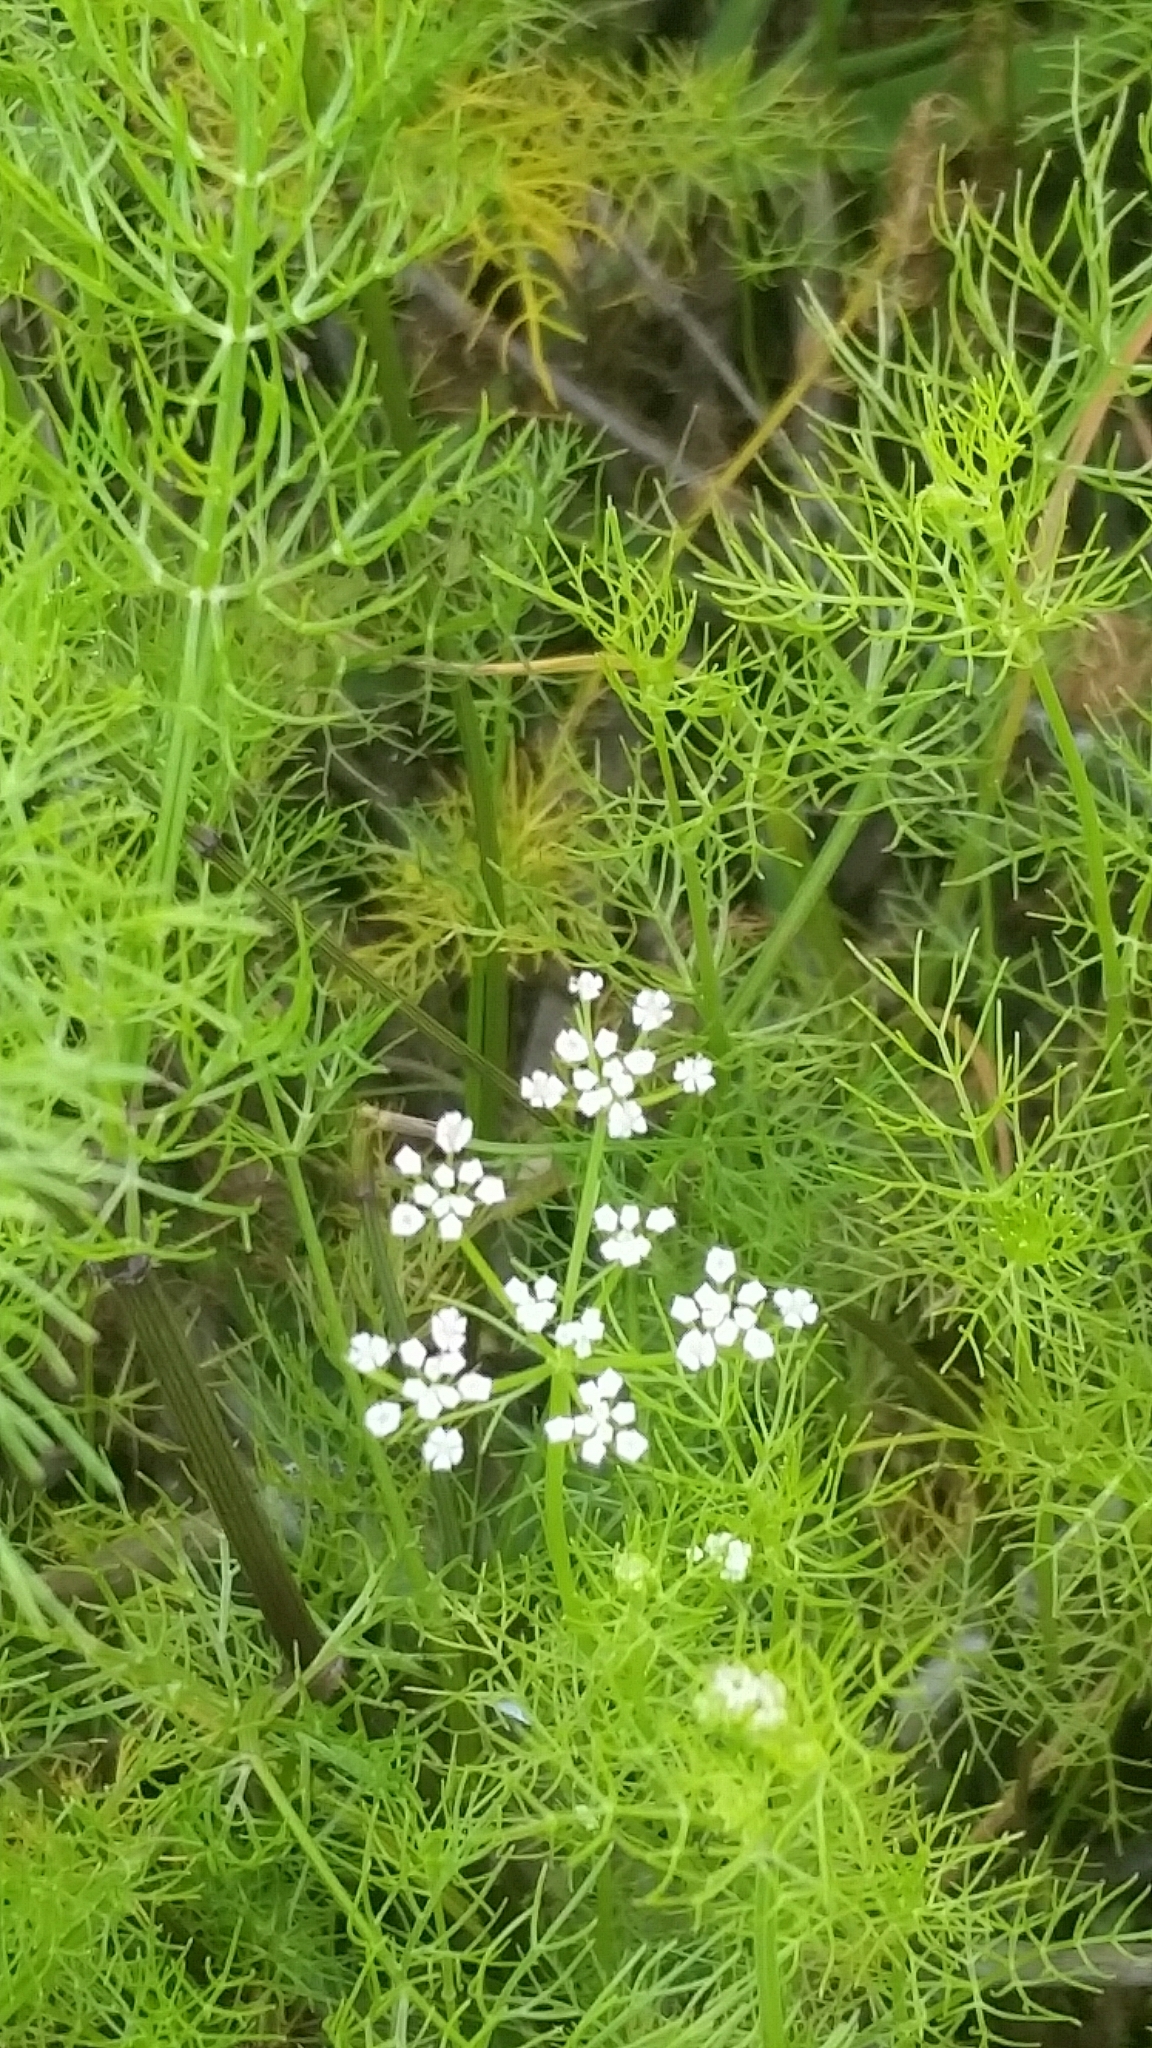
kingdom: Plantae
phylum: Tracheophyta
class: Magnoliopsida
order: Apiales
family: Apiaceae
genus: Ptilimnium
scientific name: Ptilimnium capillaceum
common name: Herbwilliam
